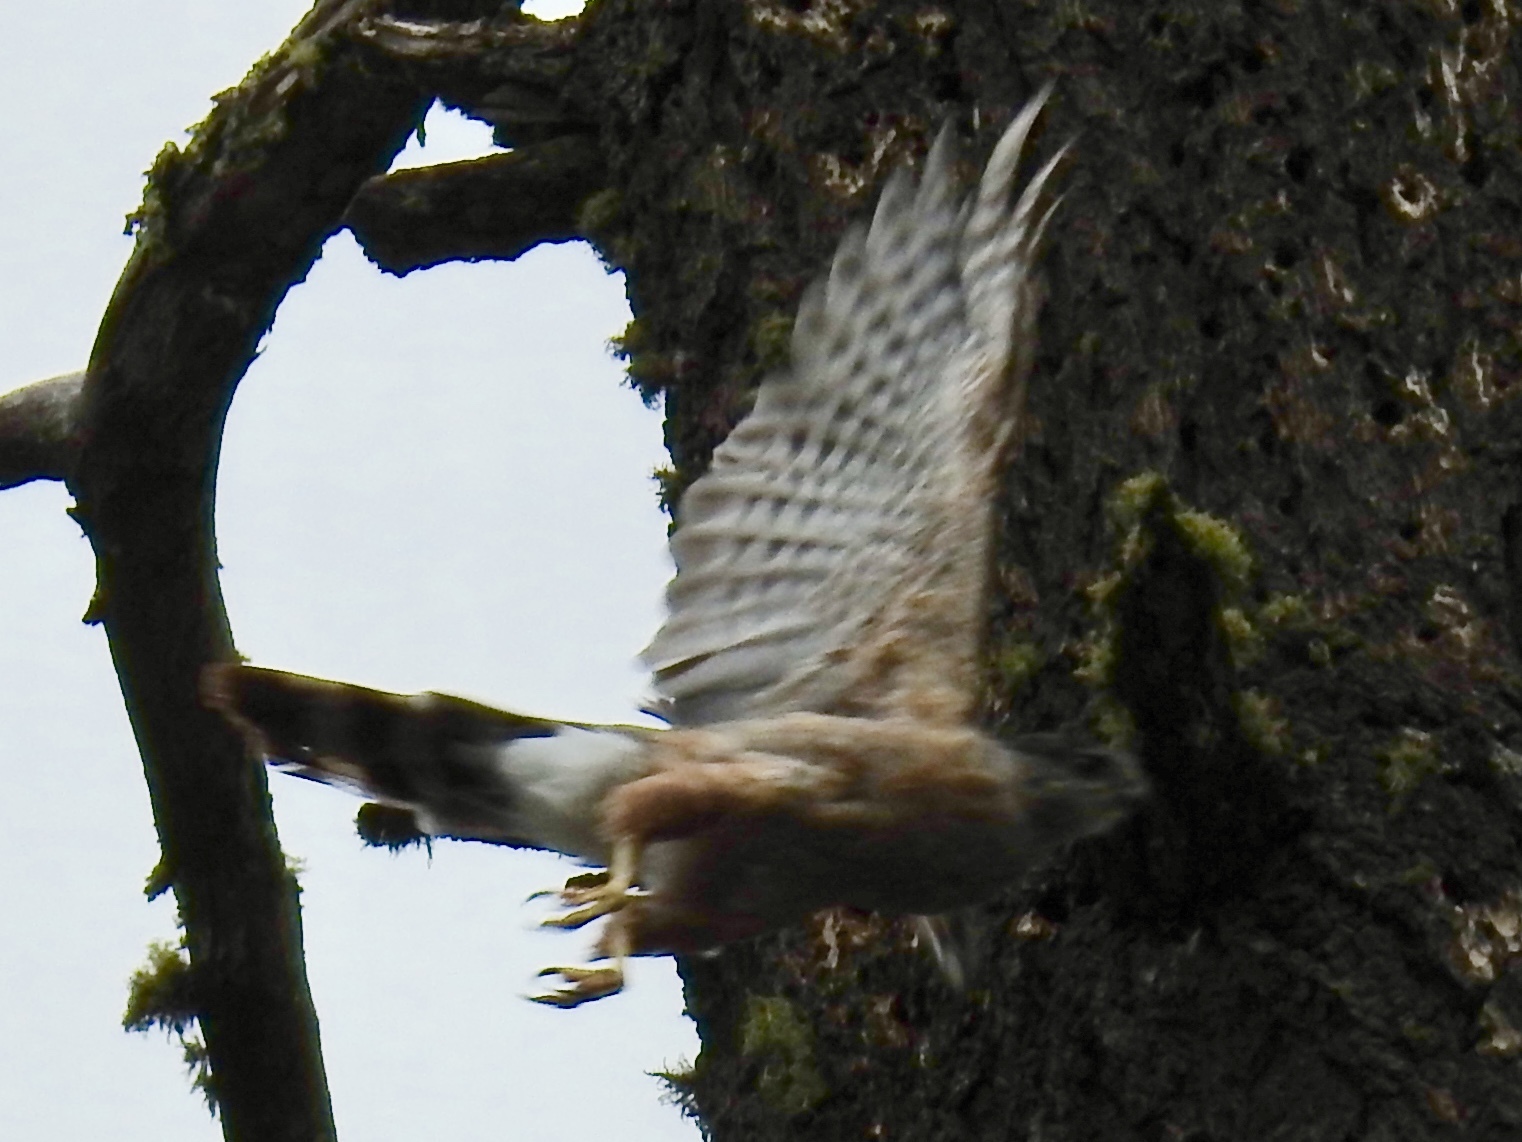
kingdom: Animalia
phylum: Chordata
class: Aves
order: Accipitriformes
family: Accipitridae
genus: Accipiter
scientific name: Accipiter cooperii
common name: Cooper's hawk
